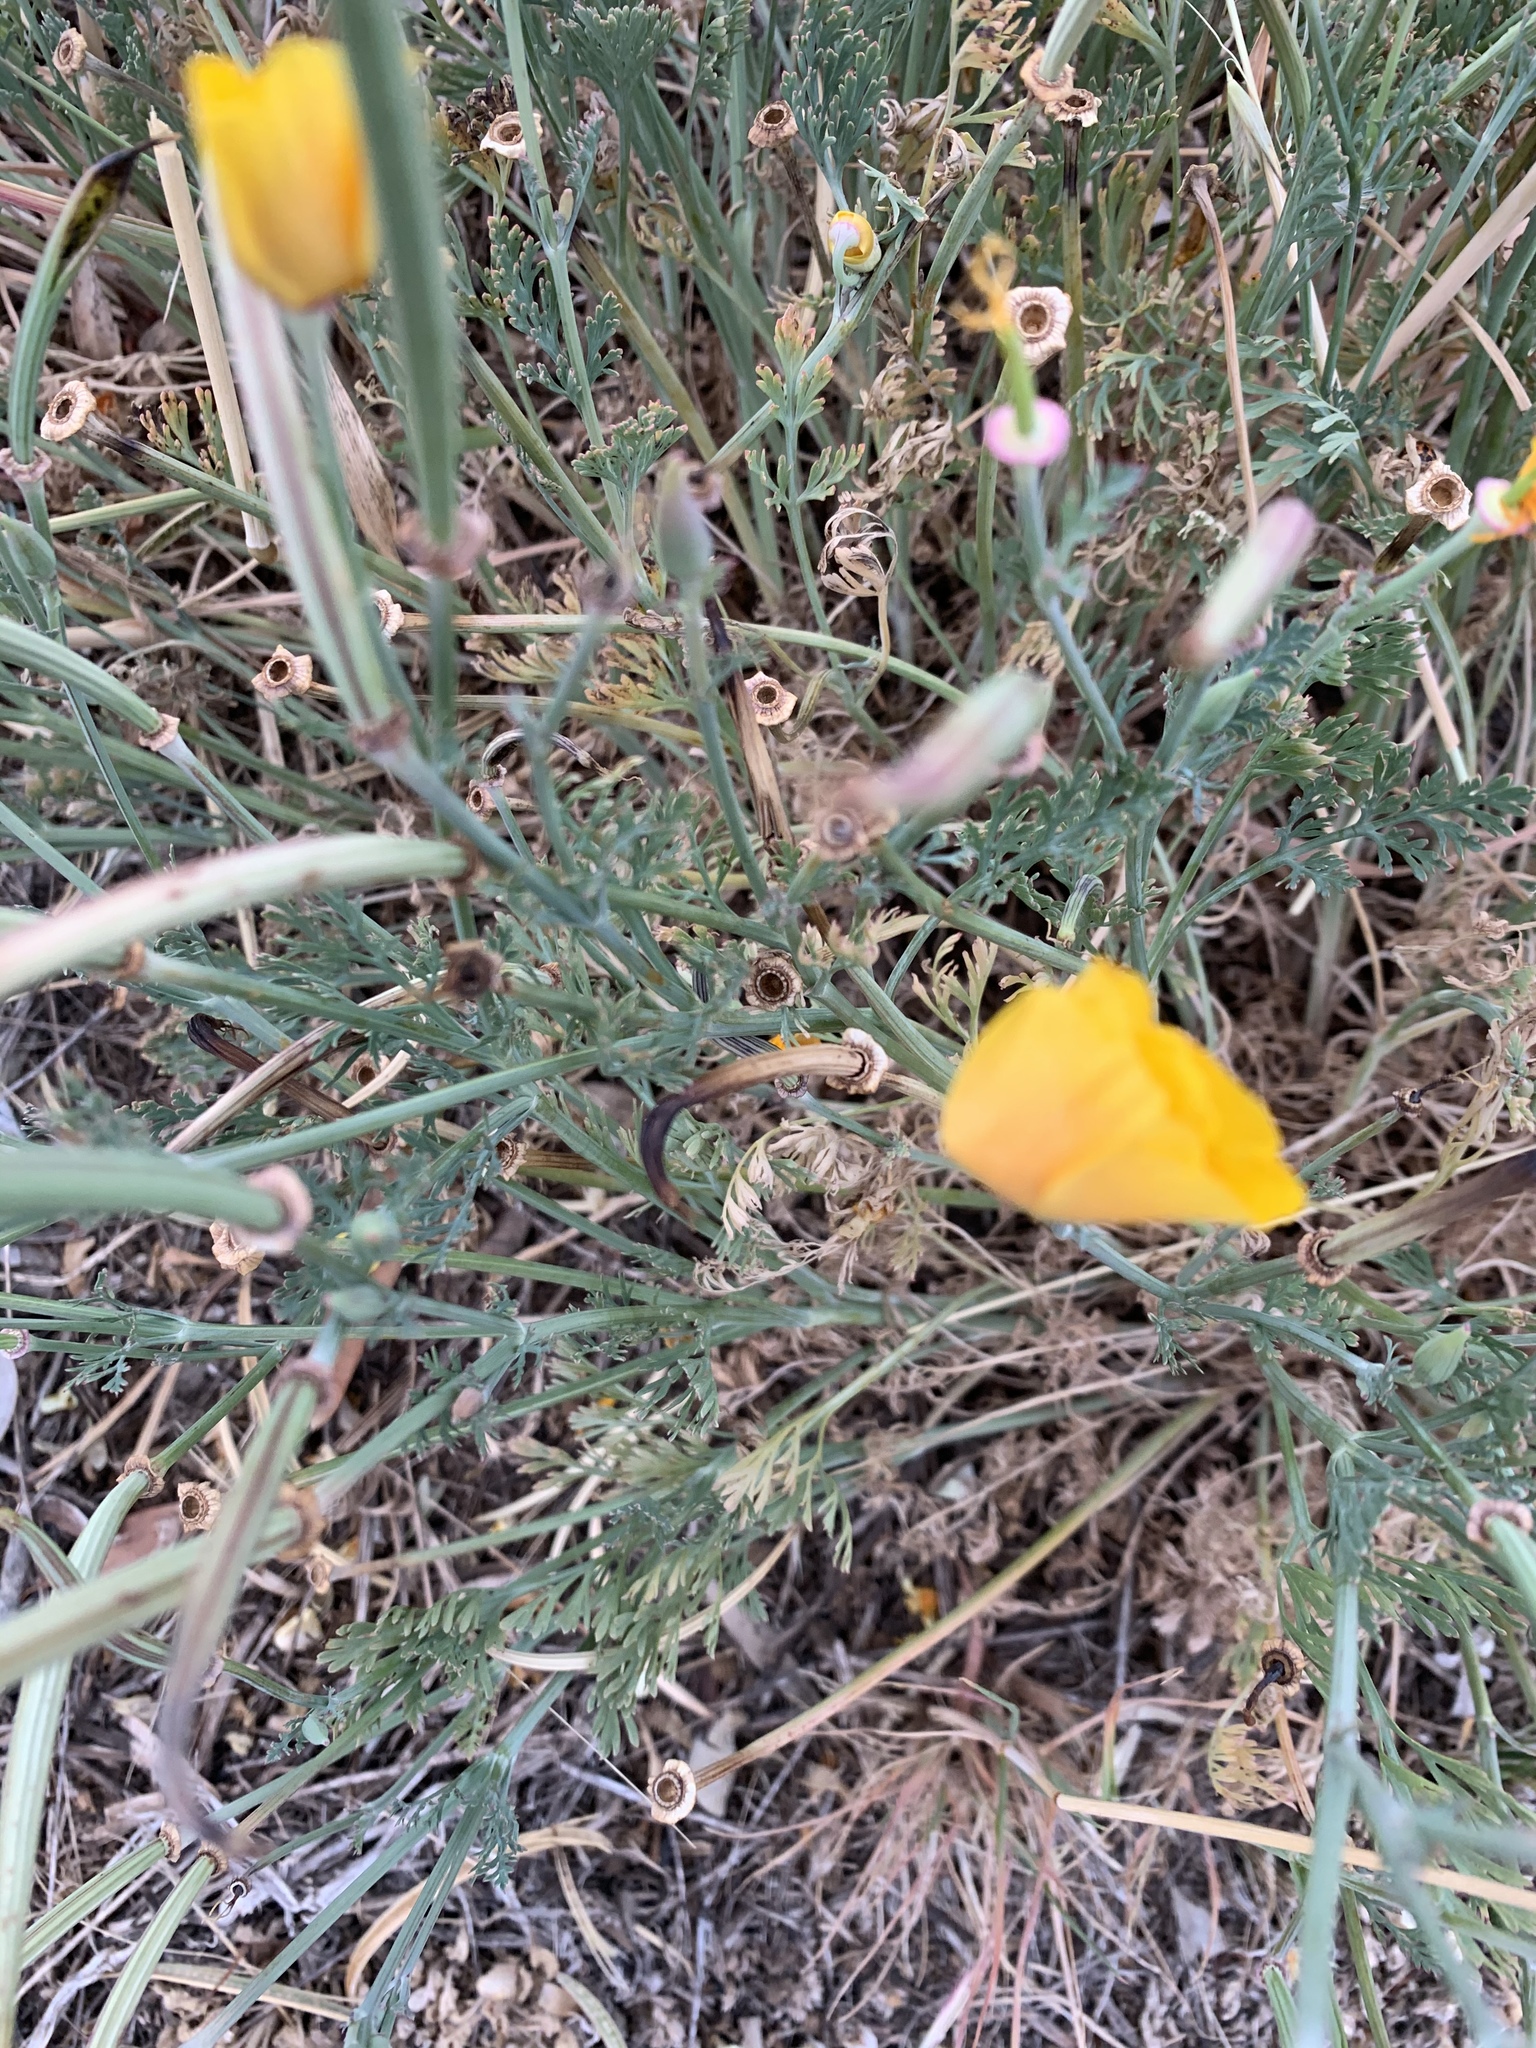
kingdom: Plantae
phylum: Tracheophyta
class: Magnoliopsida
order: Ranunculales
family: Papaveraceae
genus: Eschscholzia
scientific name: Eschscholzia californica
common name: California poppy
